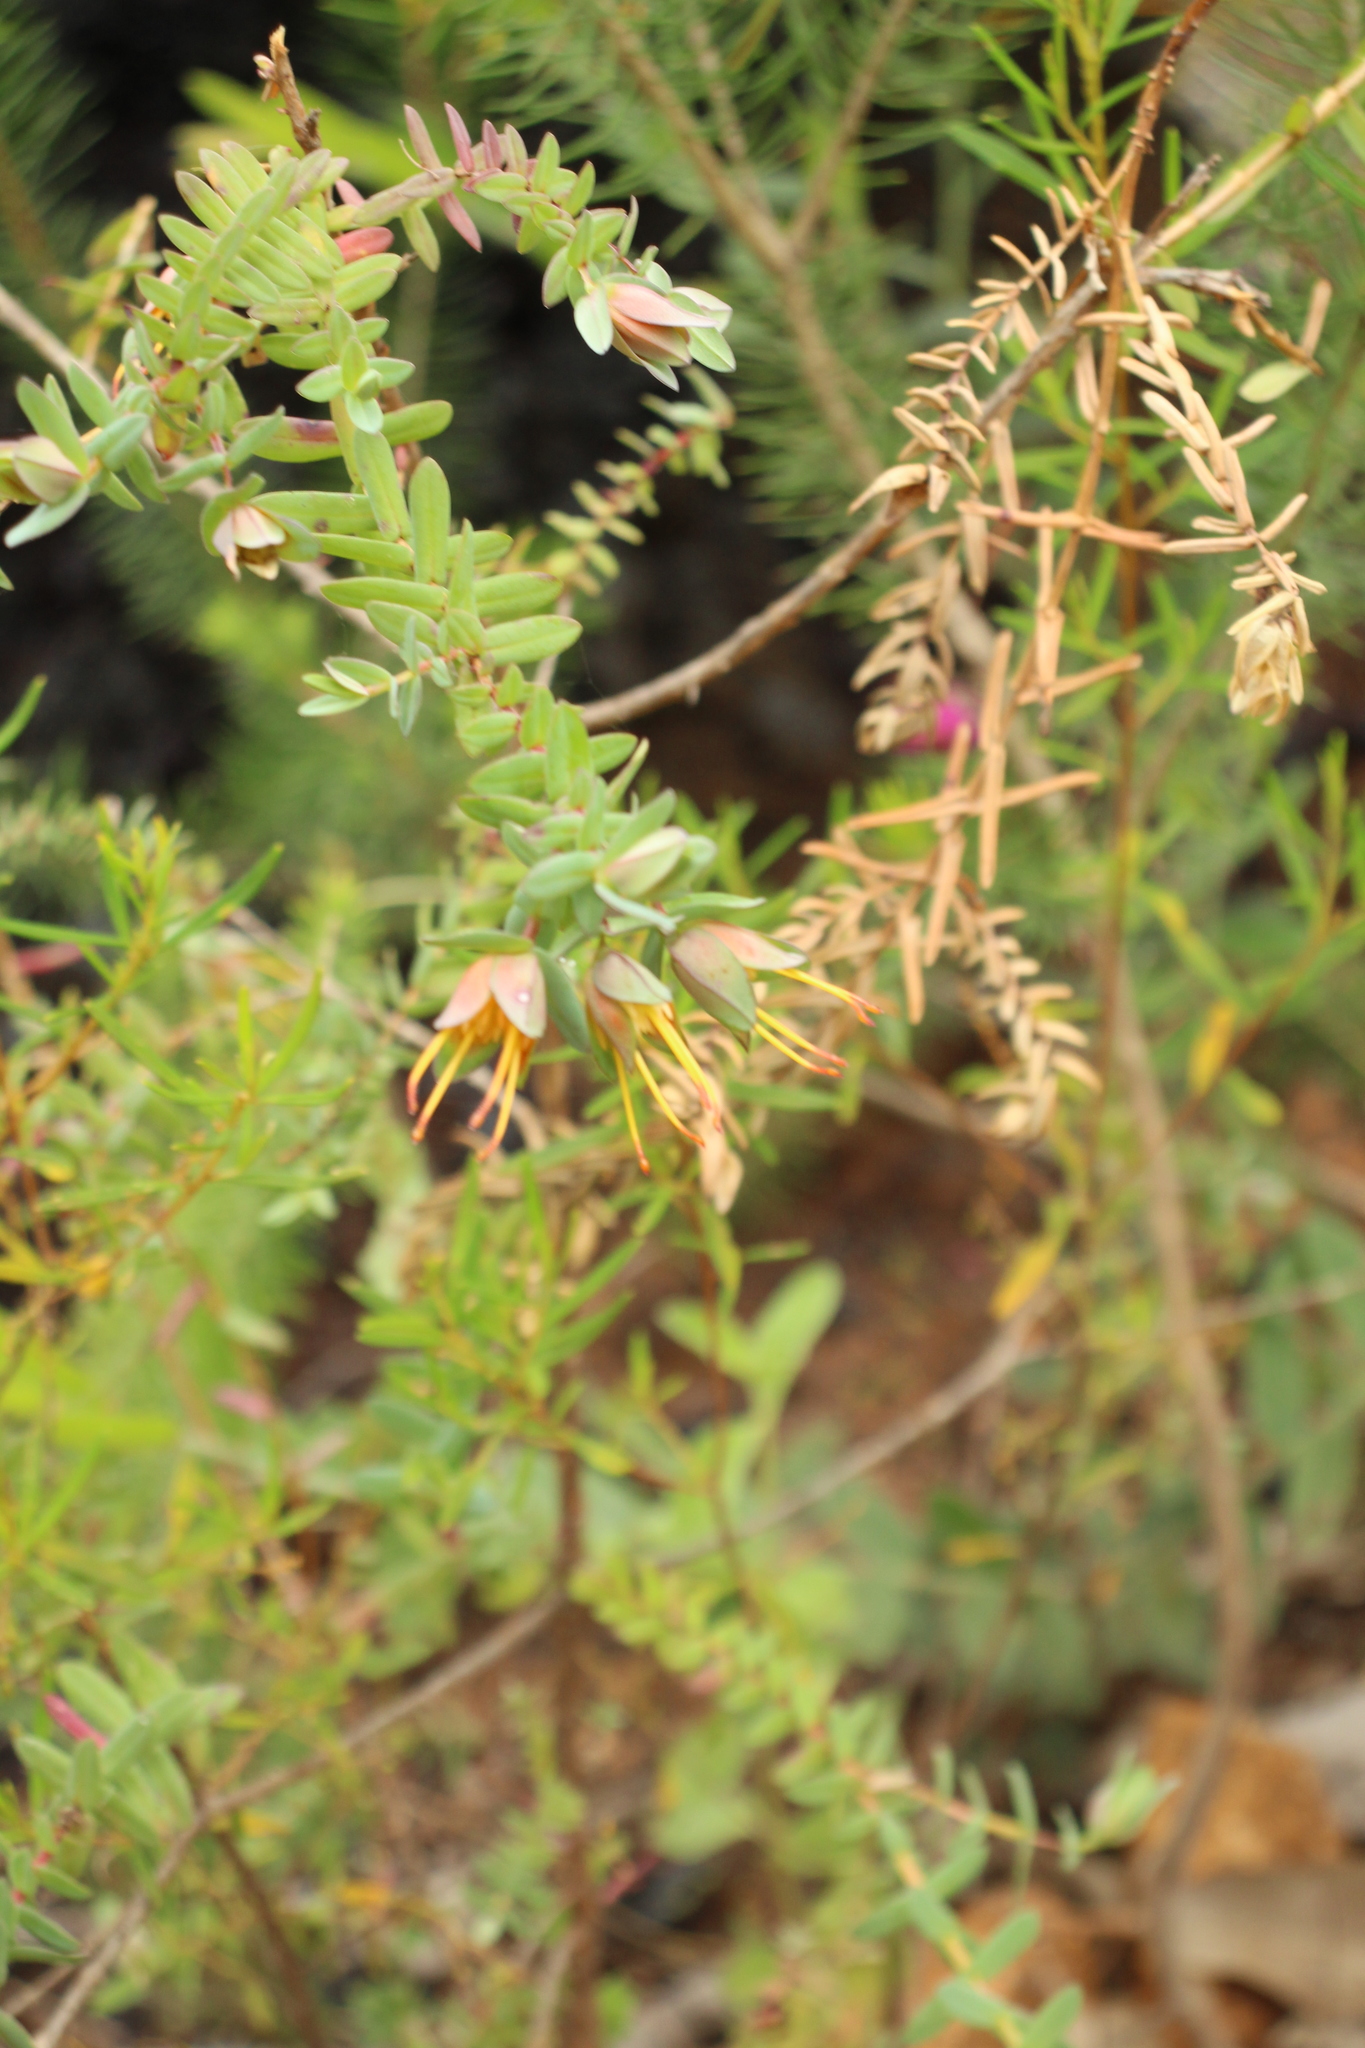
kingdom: Plantae
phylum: Tracheophyta
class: Magnoliopsida
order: Myrtales
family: Myrtaceae
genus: Darwinia
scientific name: Darwinia citriodora
